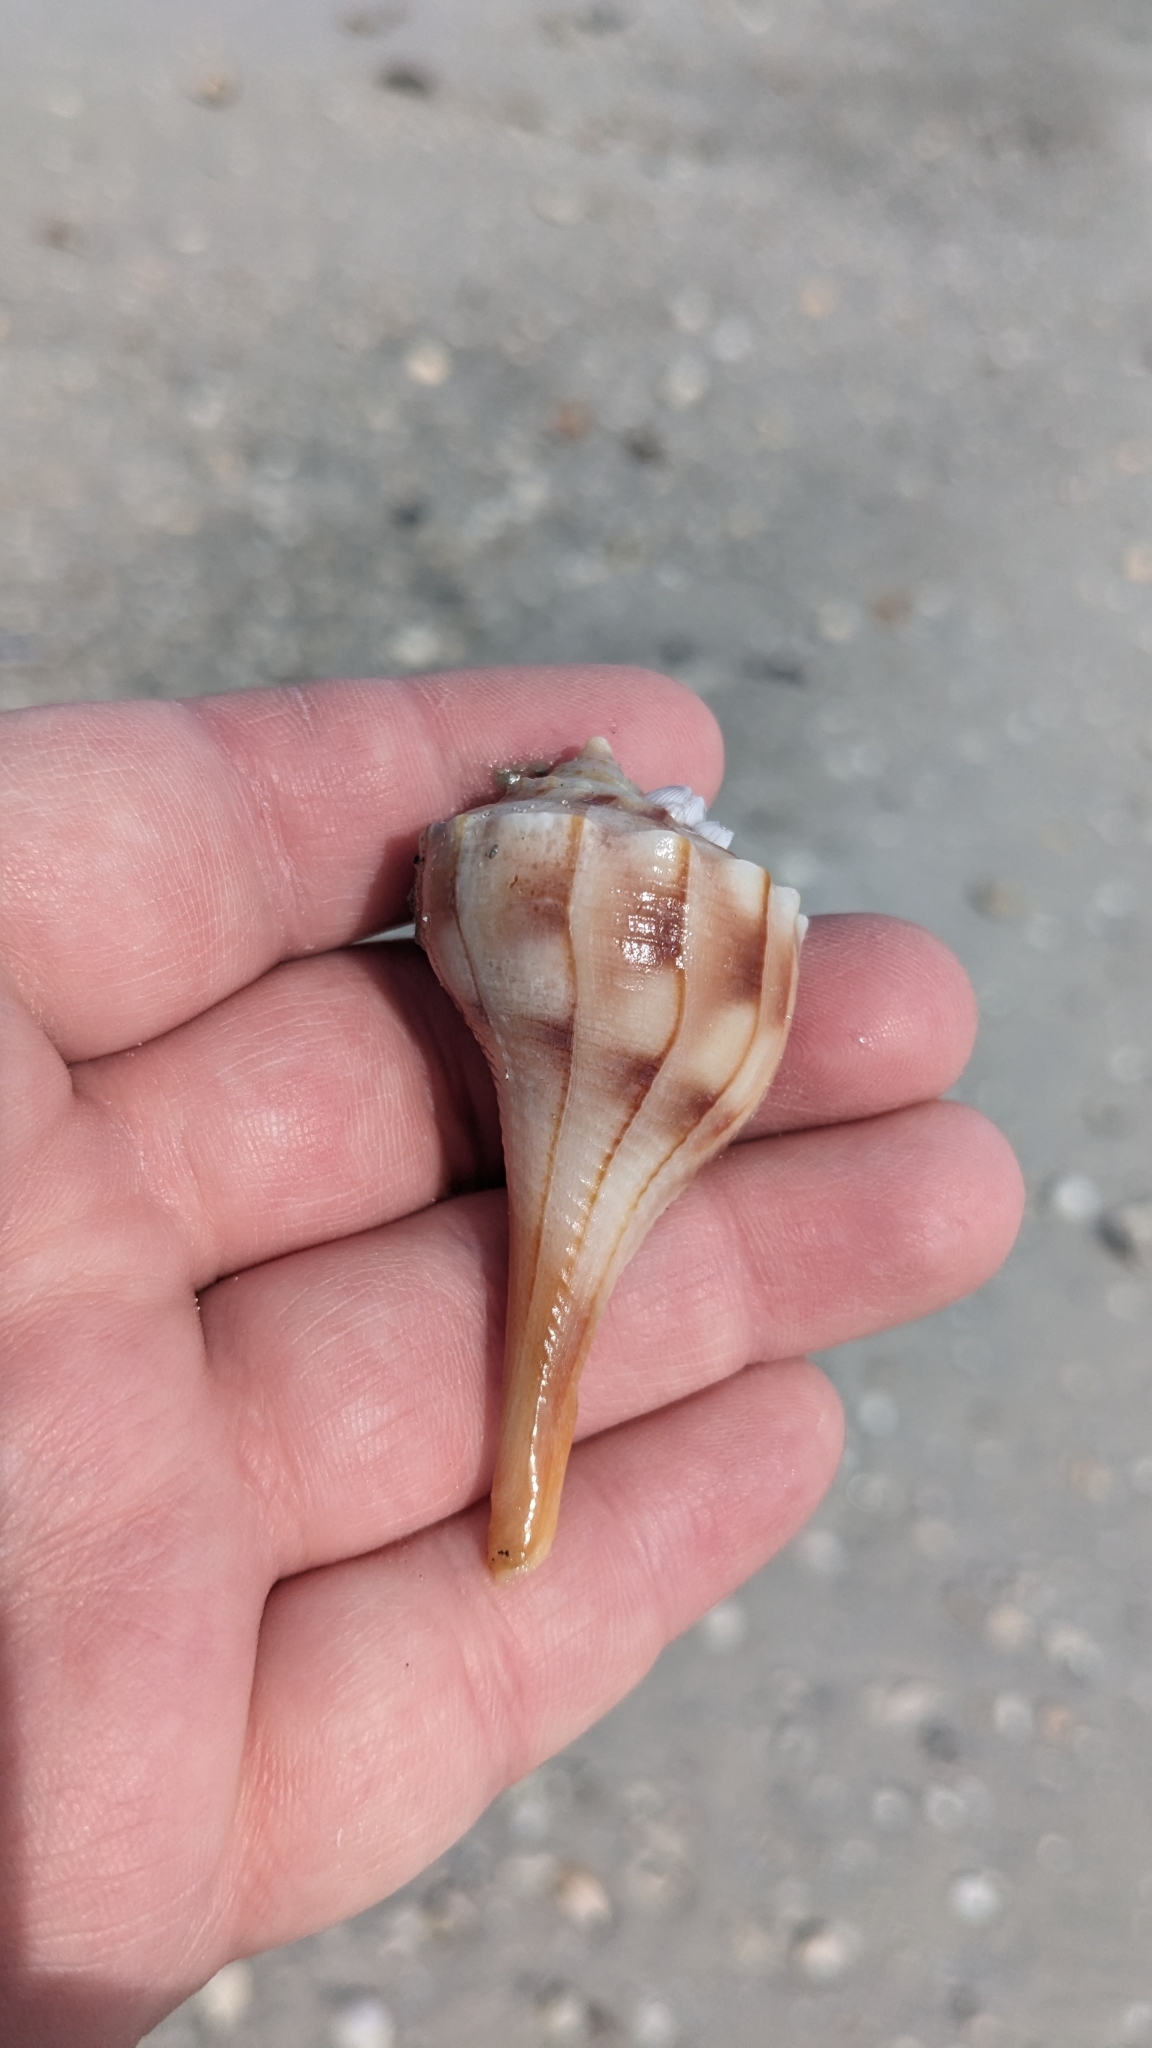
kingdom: Animalia
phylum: Mollusca
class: Gastropoda
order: Neogastropoda
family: Busyconidae
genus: Sinistrofulgur
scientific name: Sinistrofulgur sinistrum
